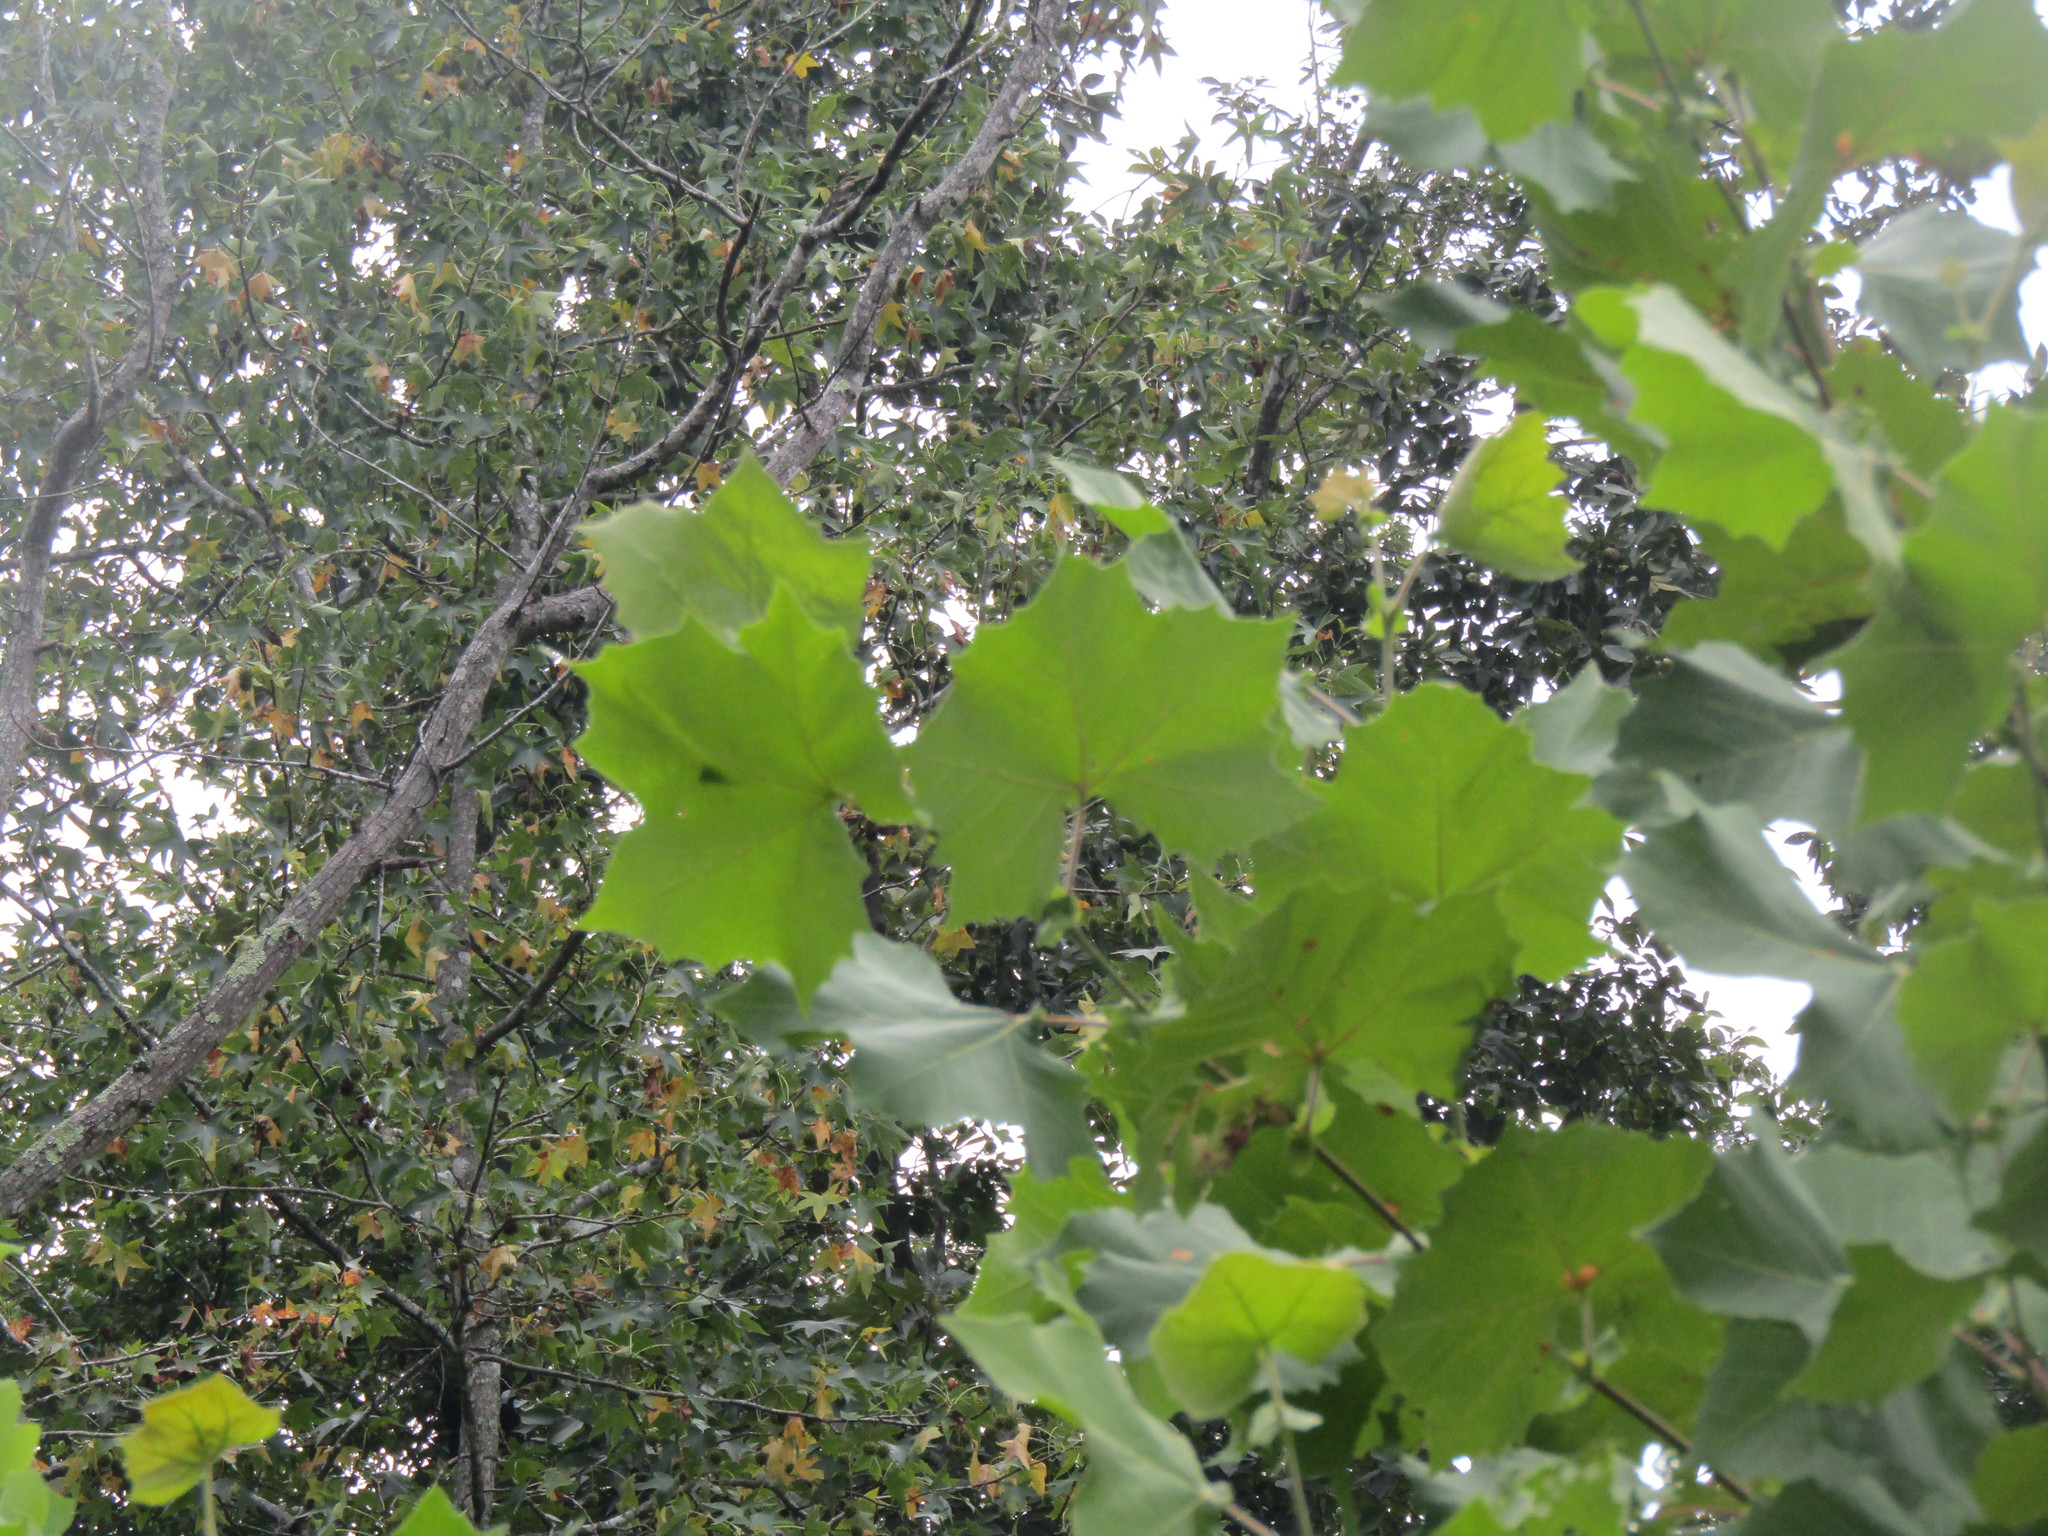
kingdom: Plantae
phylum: Tracheophyta
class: Magnoliopsida
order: Proteales
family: Platanaceae
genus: Platanus
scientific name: Platanus occidentalis
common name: American sycamore
